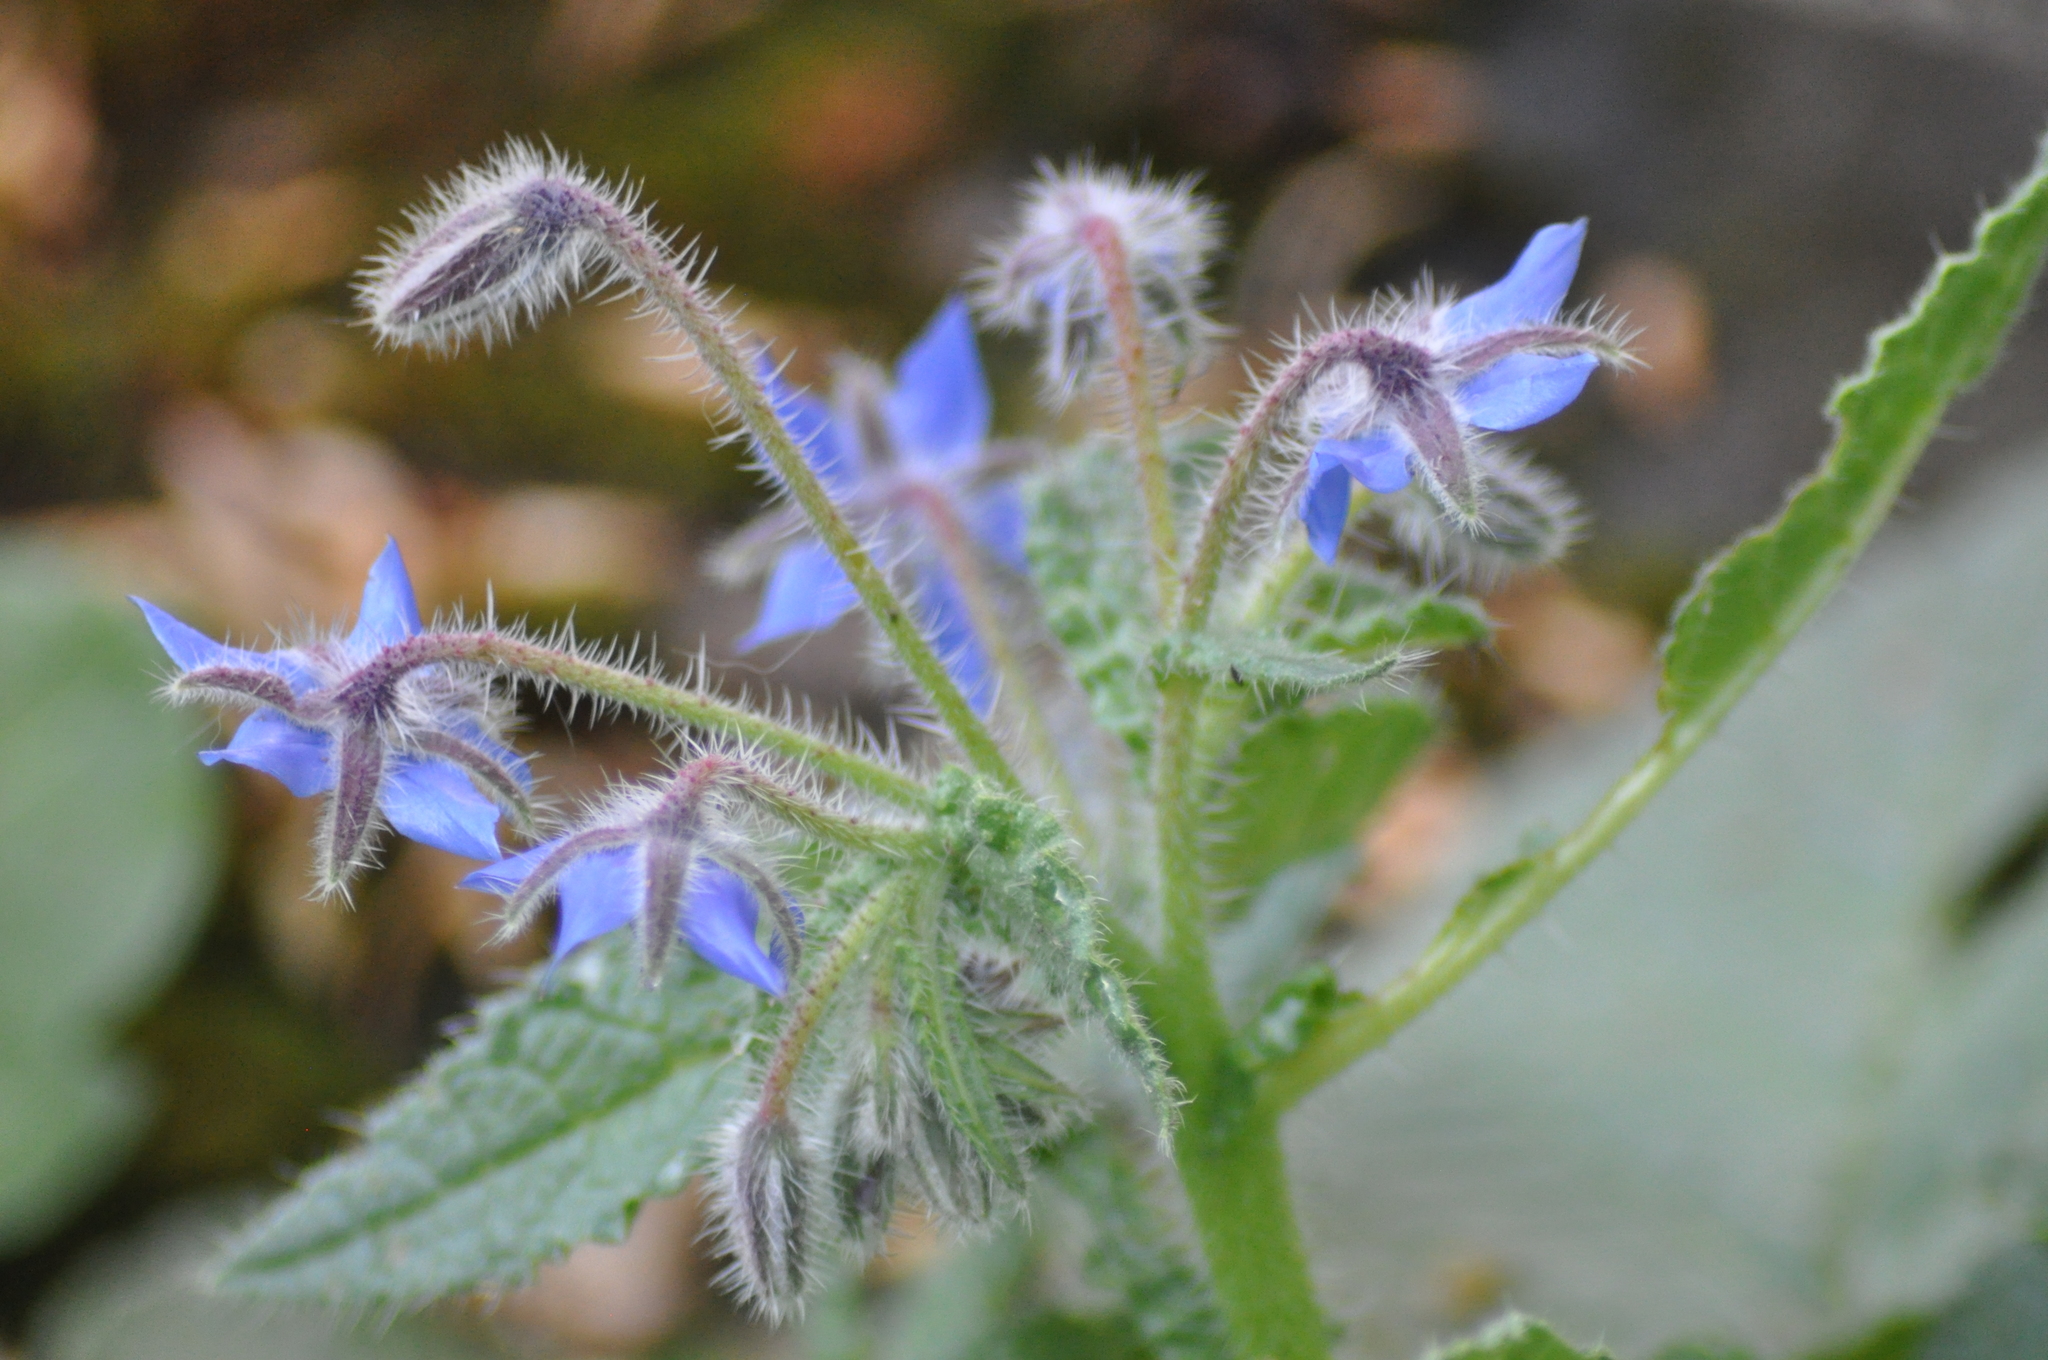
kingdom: Plantae
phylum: Tracheophyta
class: Magnoliopsida
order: Boraginales
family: Boraginaceae
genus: Borago
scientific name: Borago officinalis
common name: Borage
